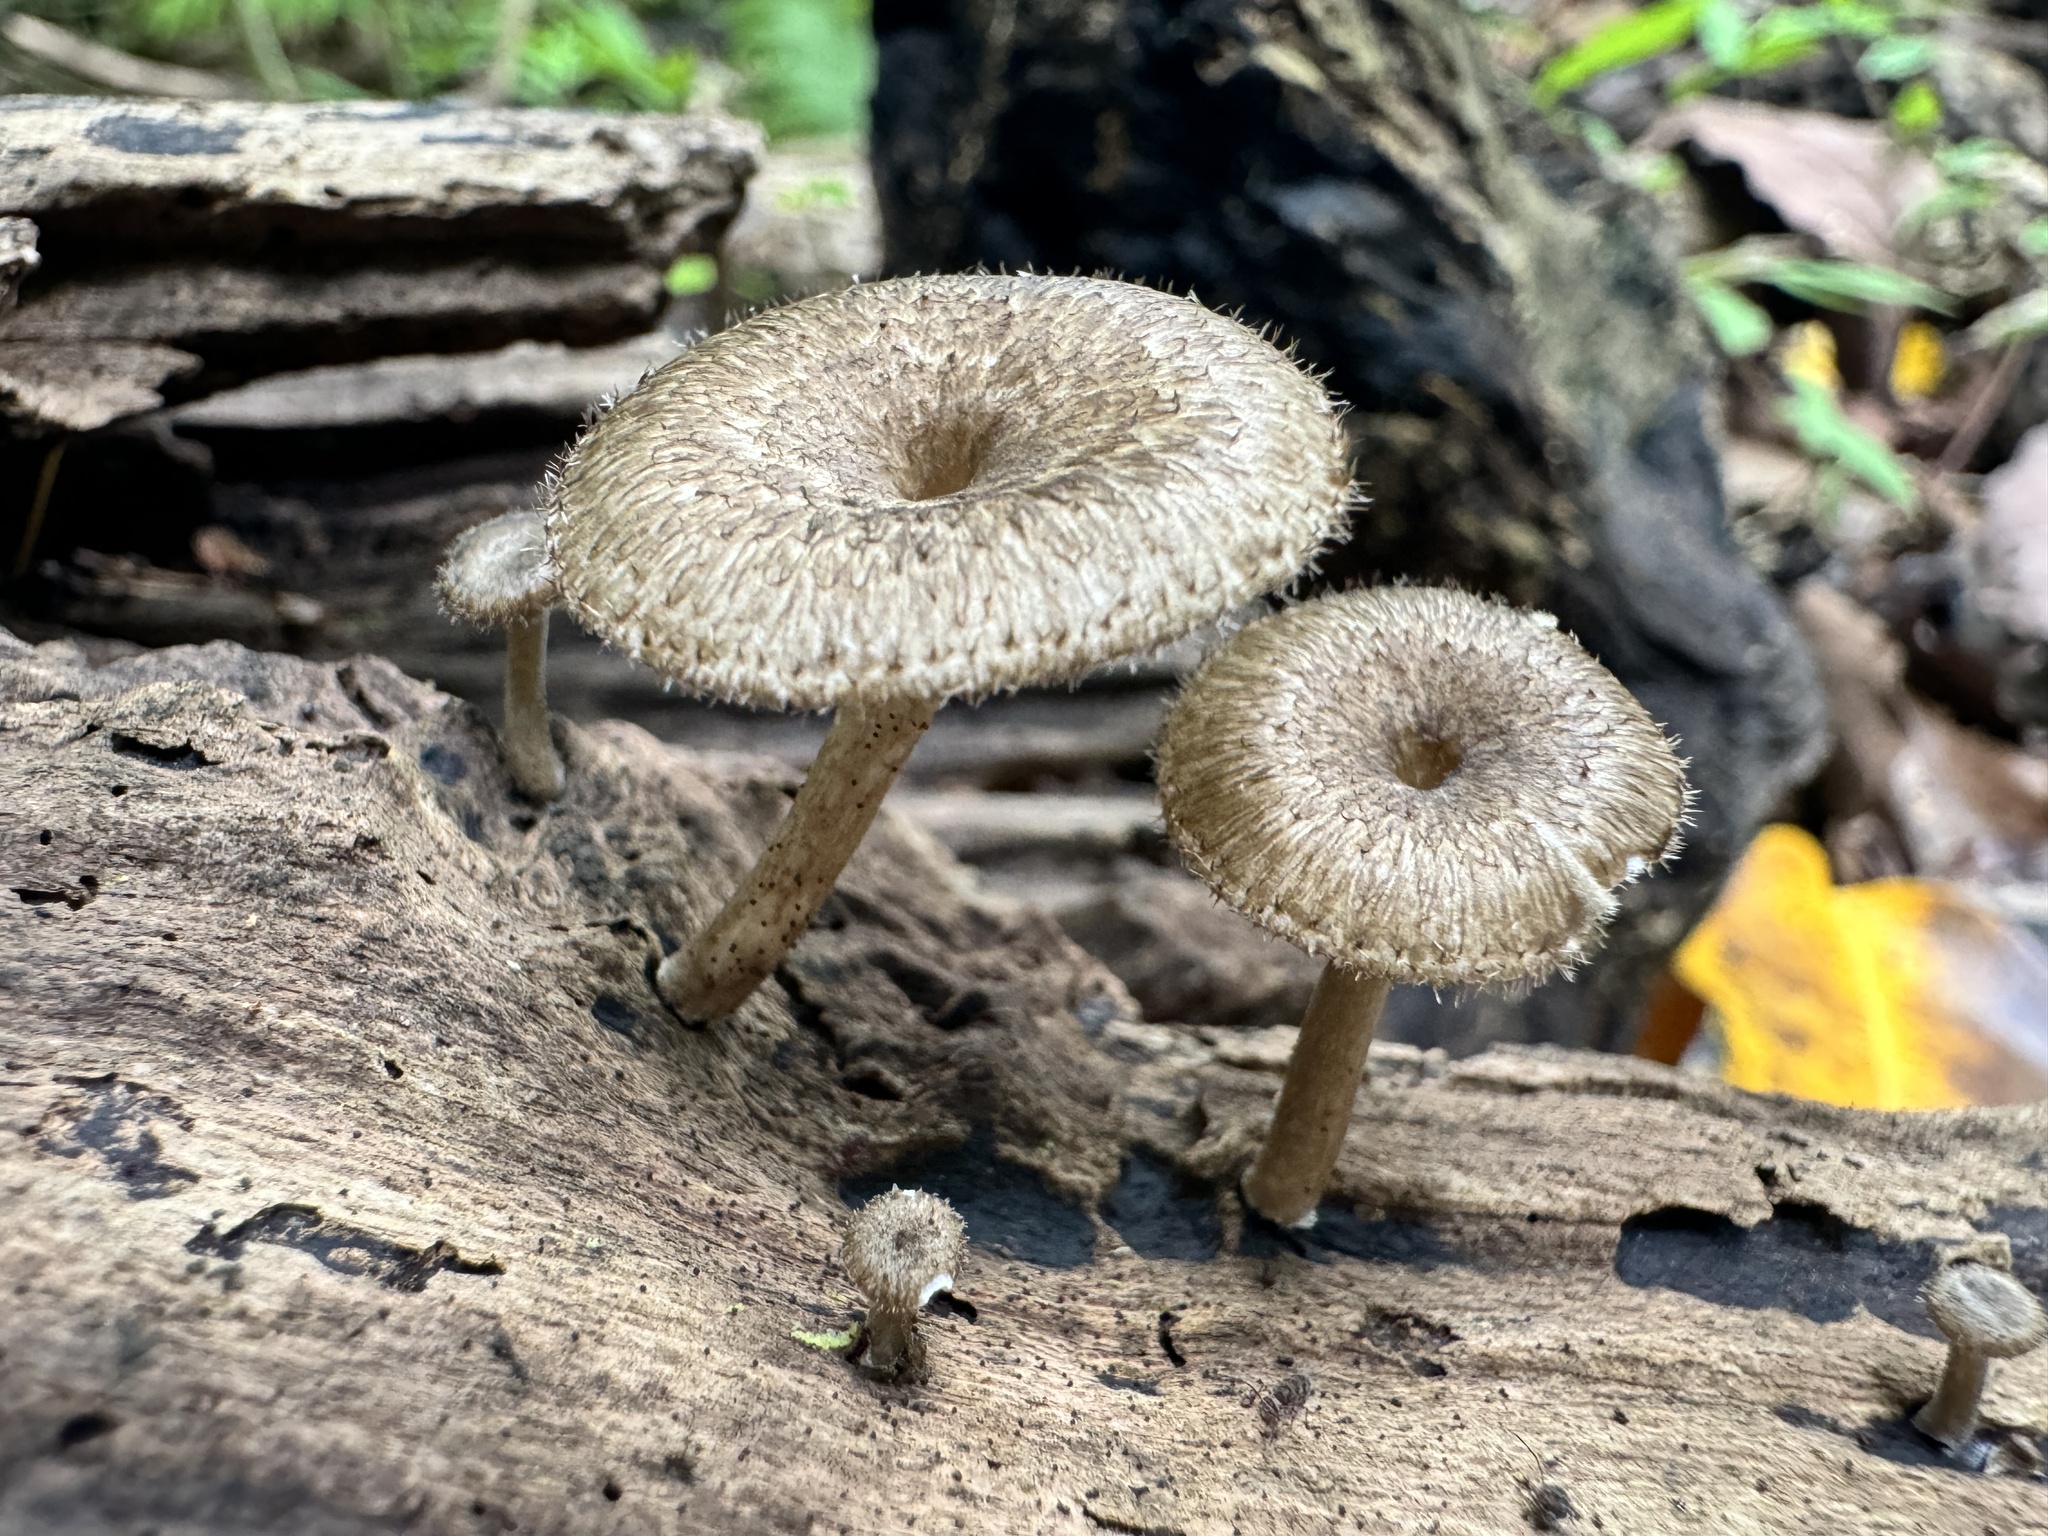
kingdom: Fungi
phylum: Basidiomycota
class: Agaricomycetes
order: Polyporales
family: Polyporaceae
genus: Lentinus
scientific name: Lentinus arcularius
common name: Spring polypore
